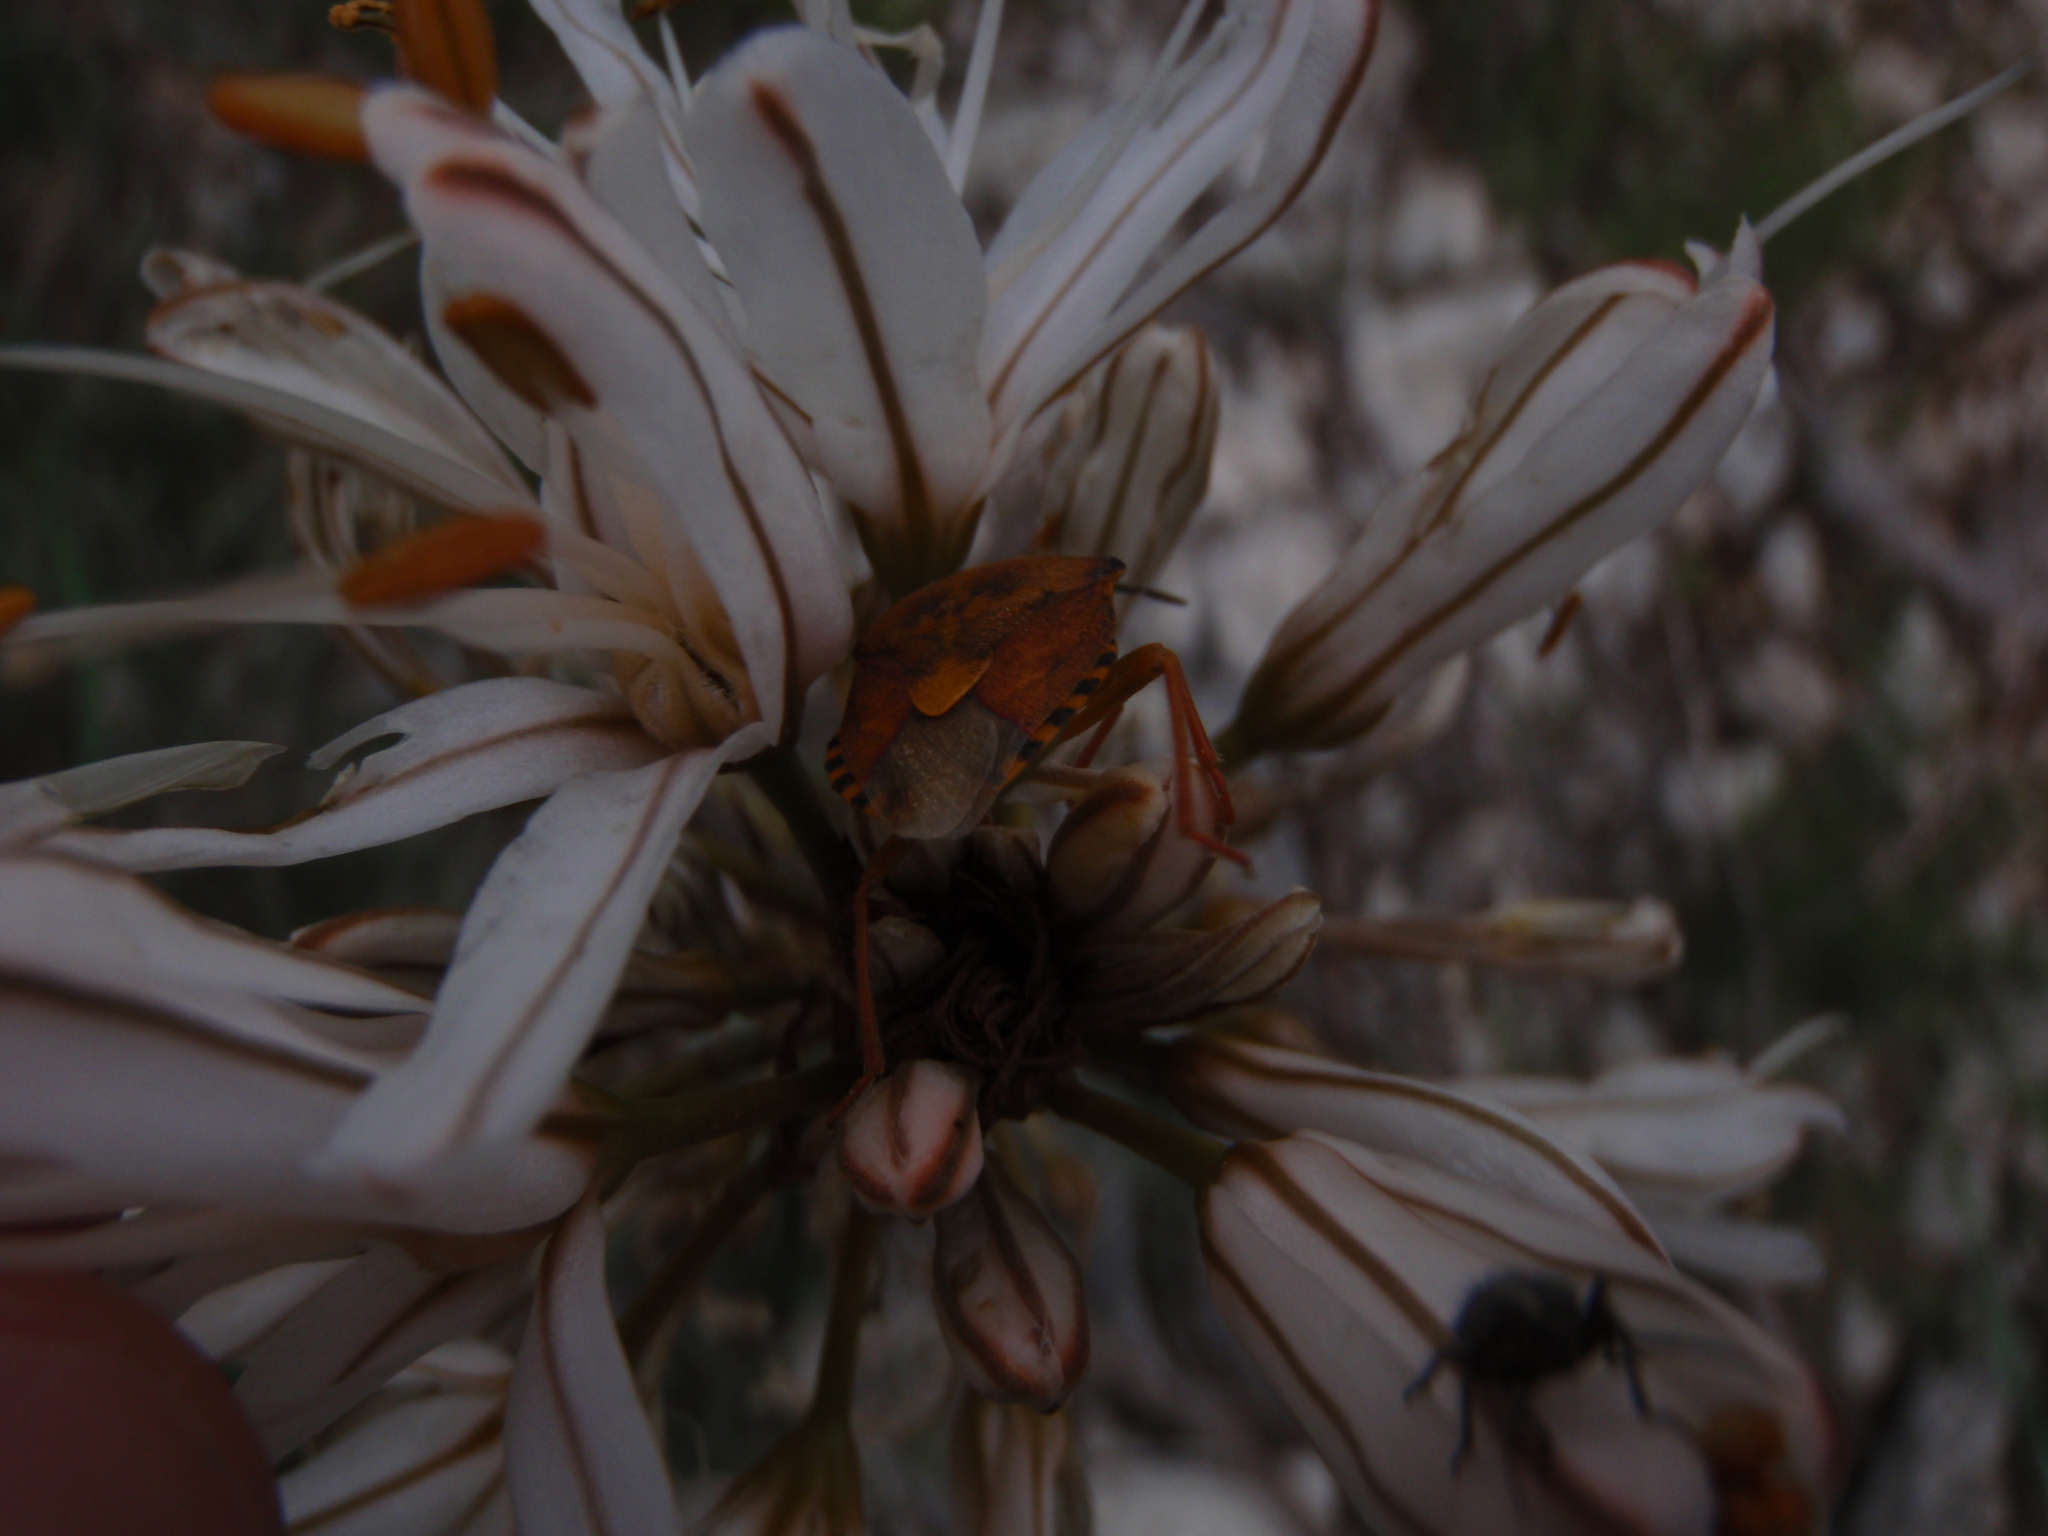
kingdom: Animalia
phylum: Arthropoda
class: Insecta
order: Hemiptera
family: Pentatomidae
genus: Carpocoris
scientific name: Carpocoris purpureipennis
